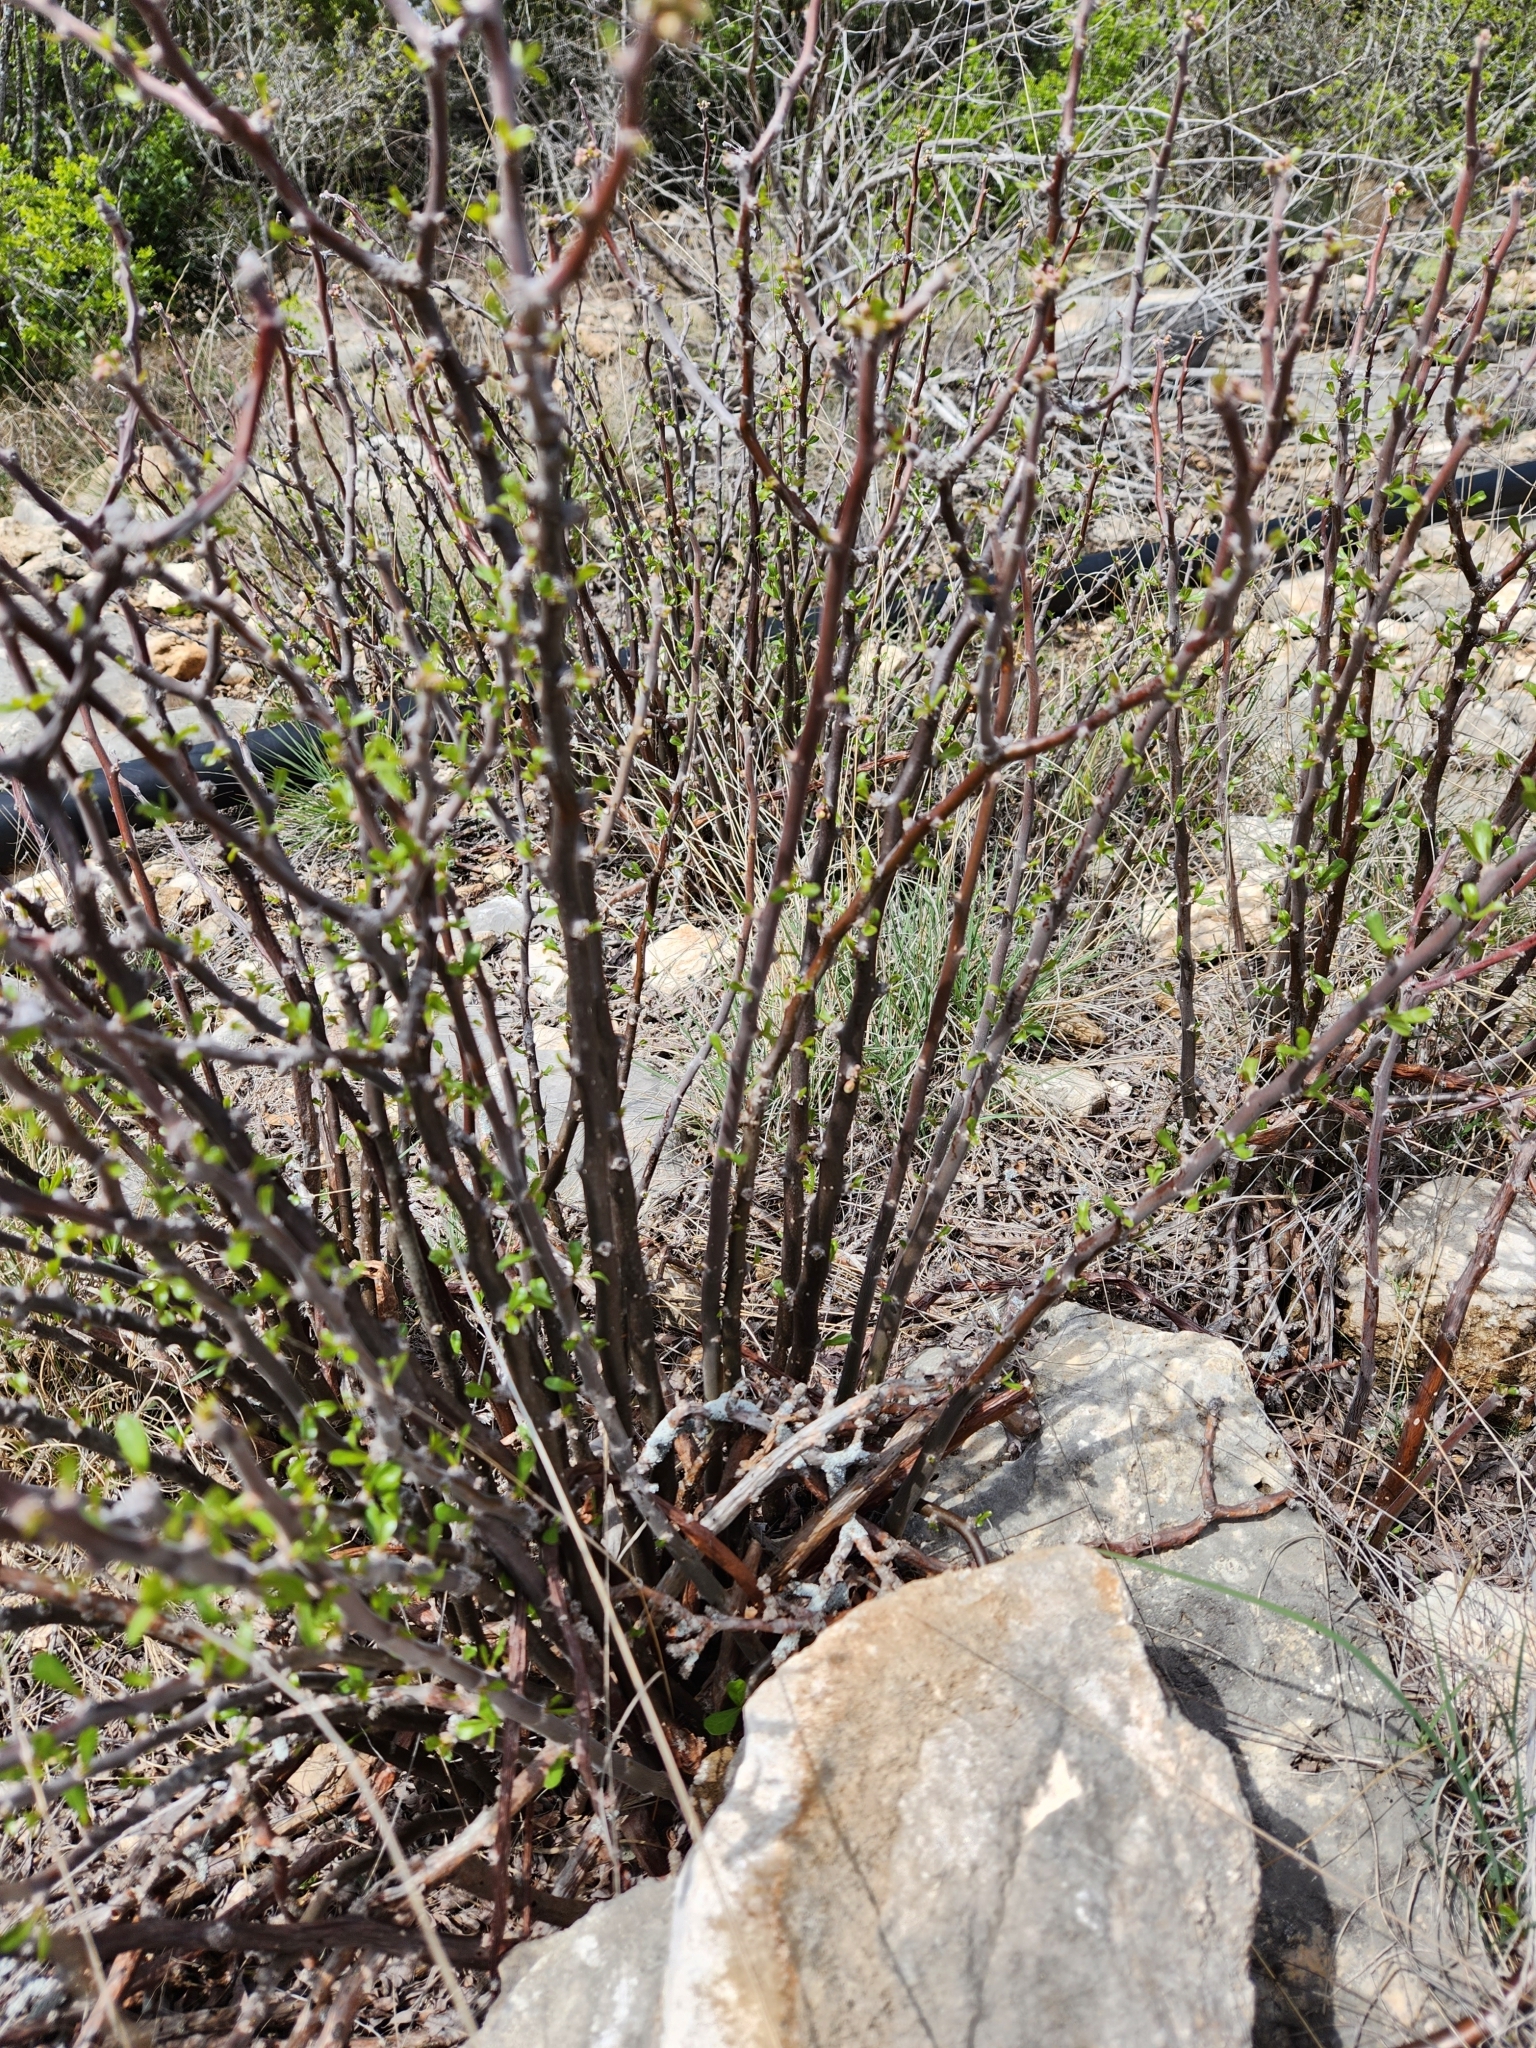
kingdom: Plantae
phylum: Tracheophyta
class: Magnoliopsida
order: Malpighiales
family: Euphorbiaceae
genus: Jatropha
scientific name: Jatropha dioica
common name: Leatherstem
